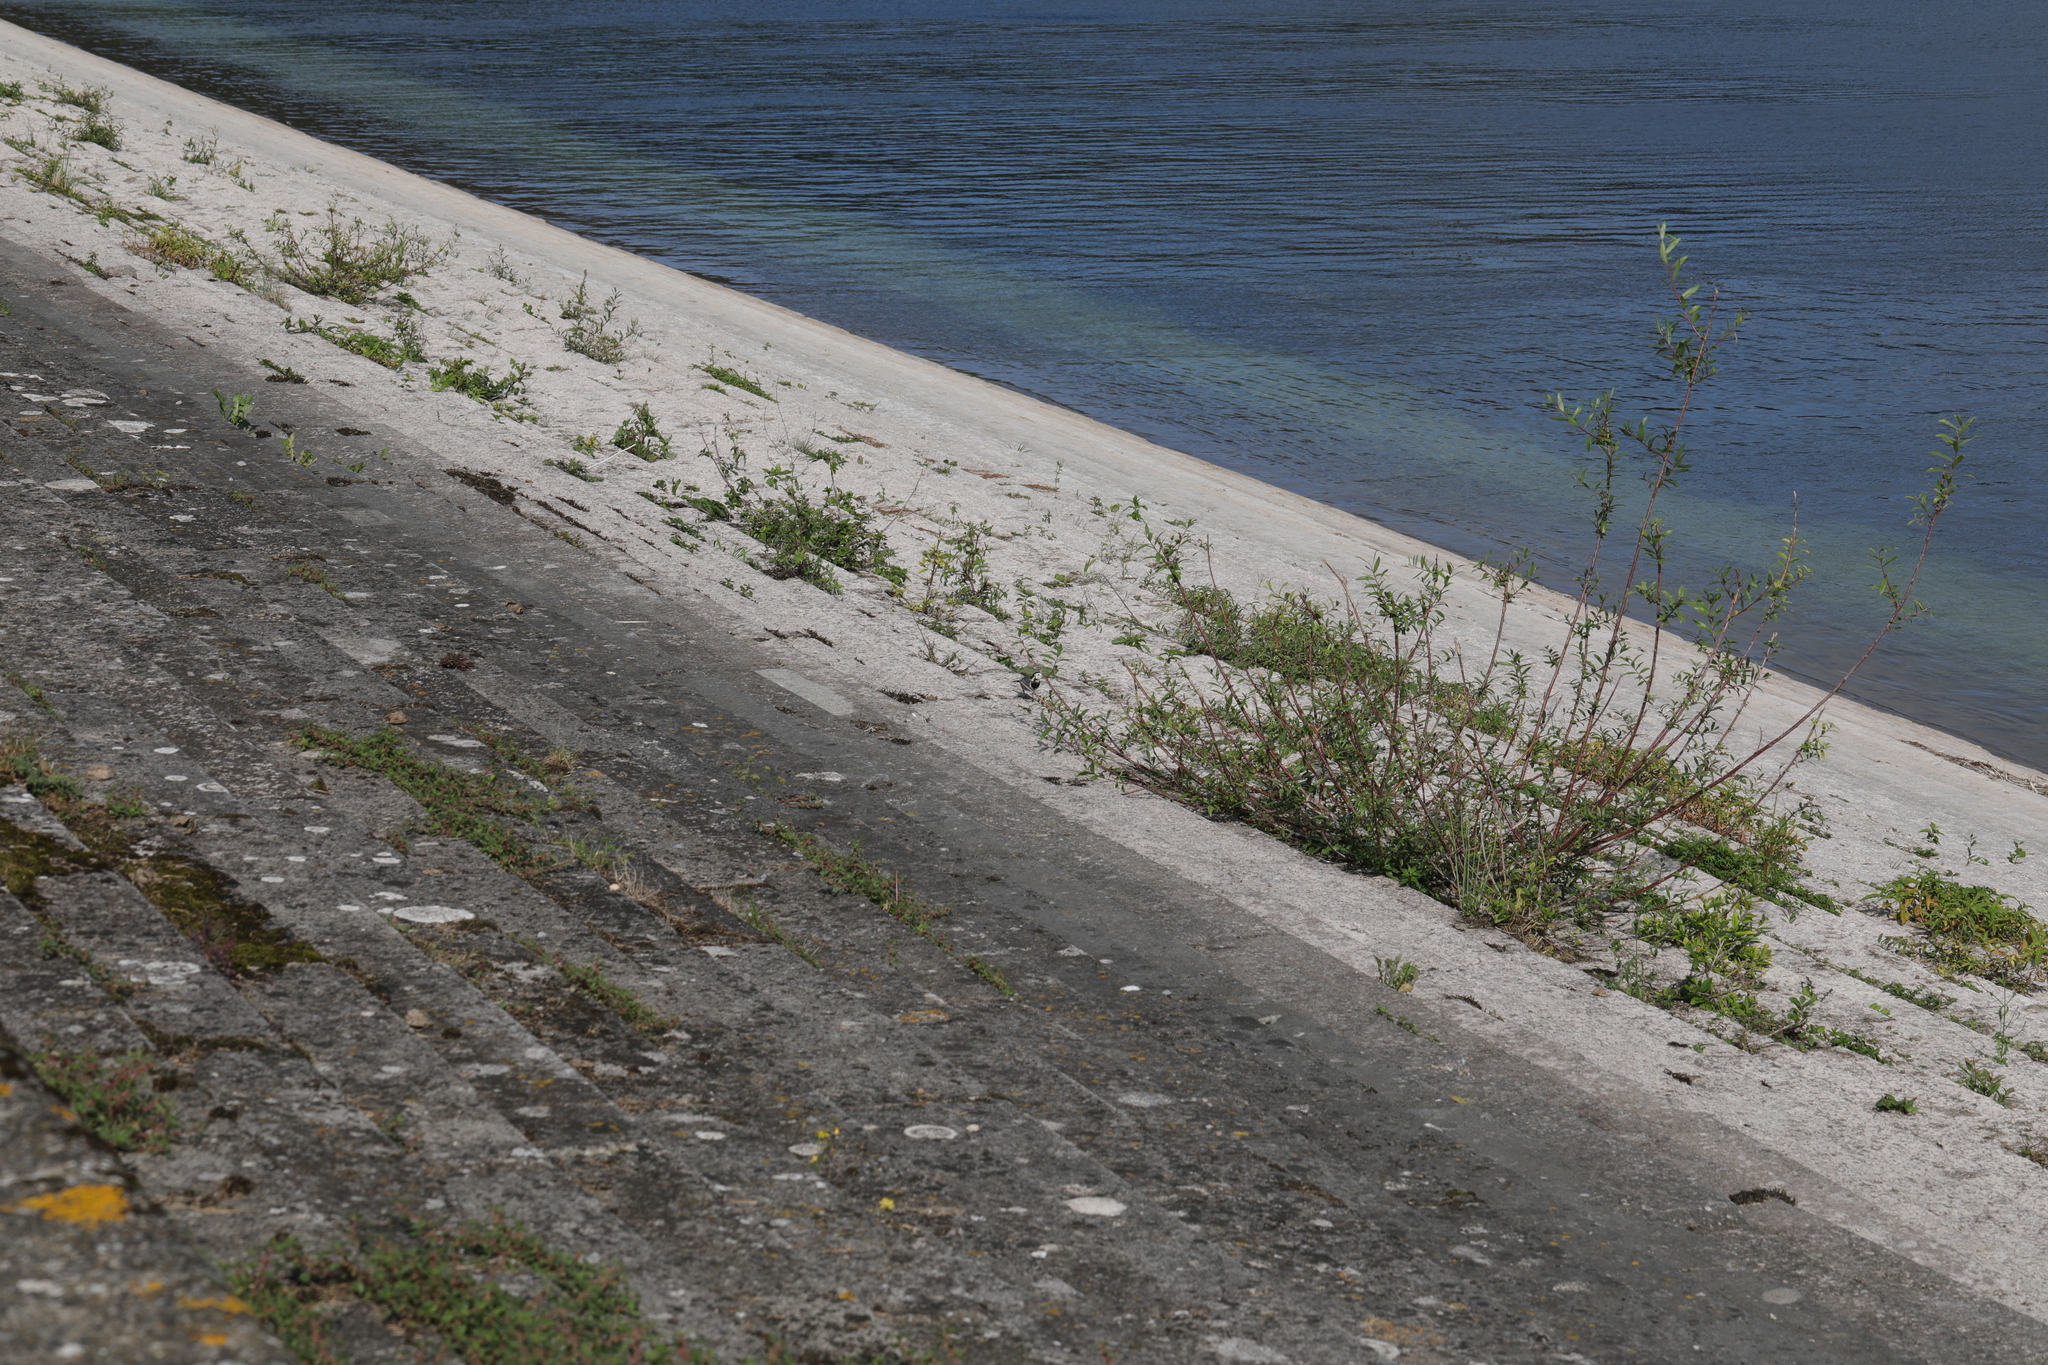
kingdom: Animalia
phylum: Chordata
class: Aves
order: Passeriformes
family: Motacillidae
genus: Motacilla
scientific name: Motacilla alba
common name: White wagtail
